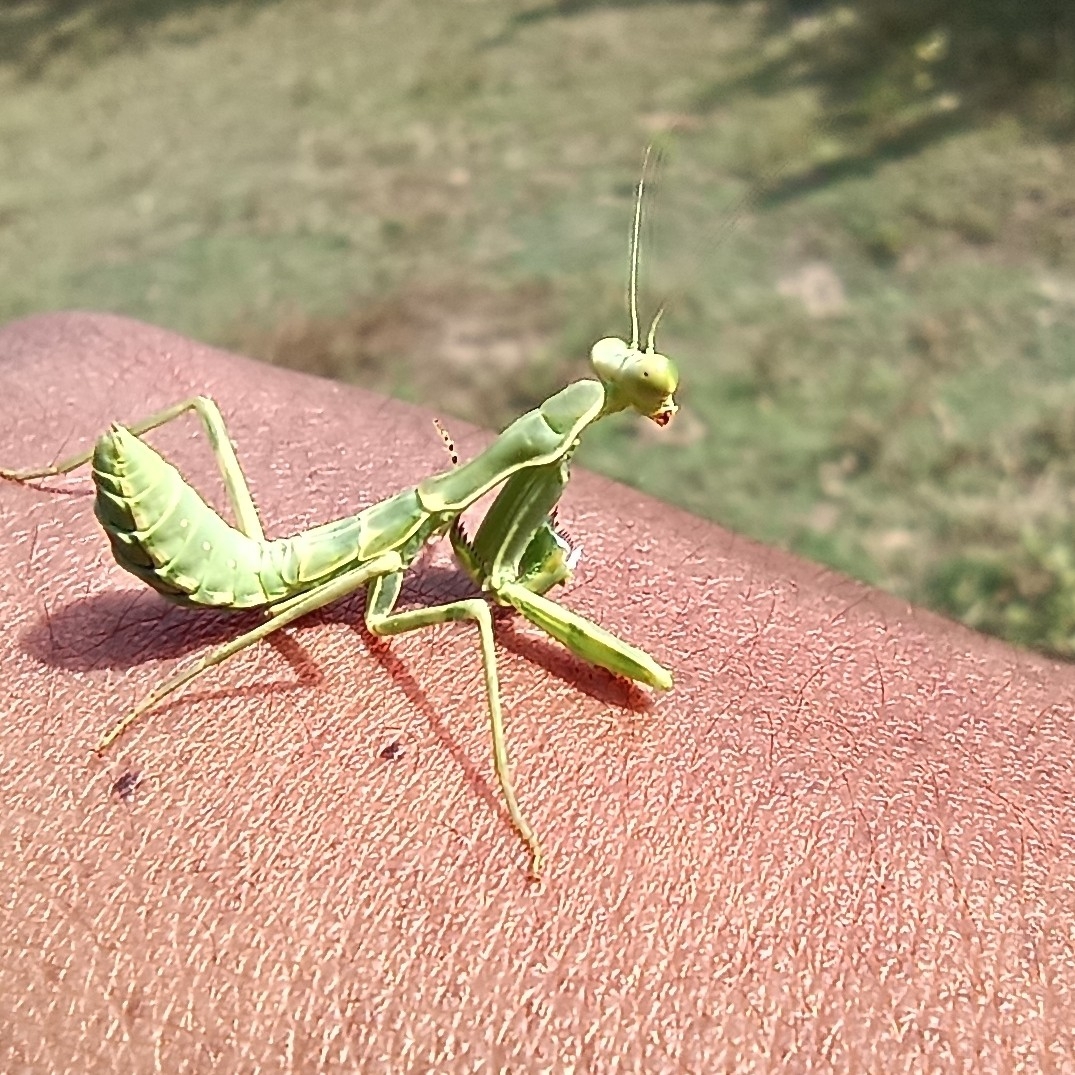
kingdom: Animalia
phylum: Arthropoda
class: Insecta
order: Mantodea
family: Mantidae
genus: Hierodula
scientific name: Hierodula coarctata
